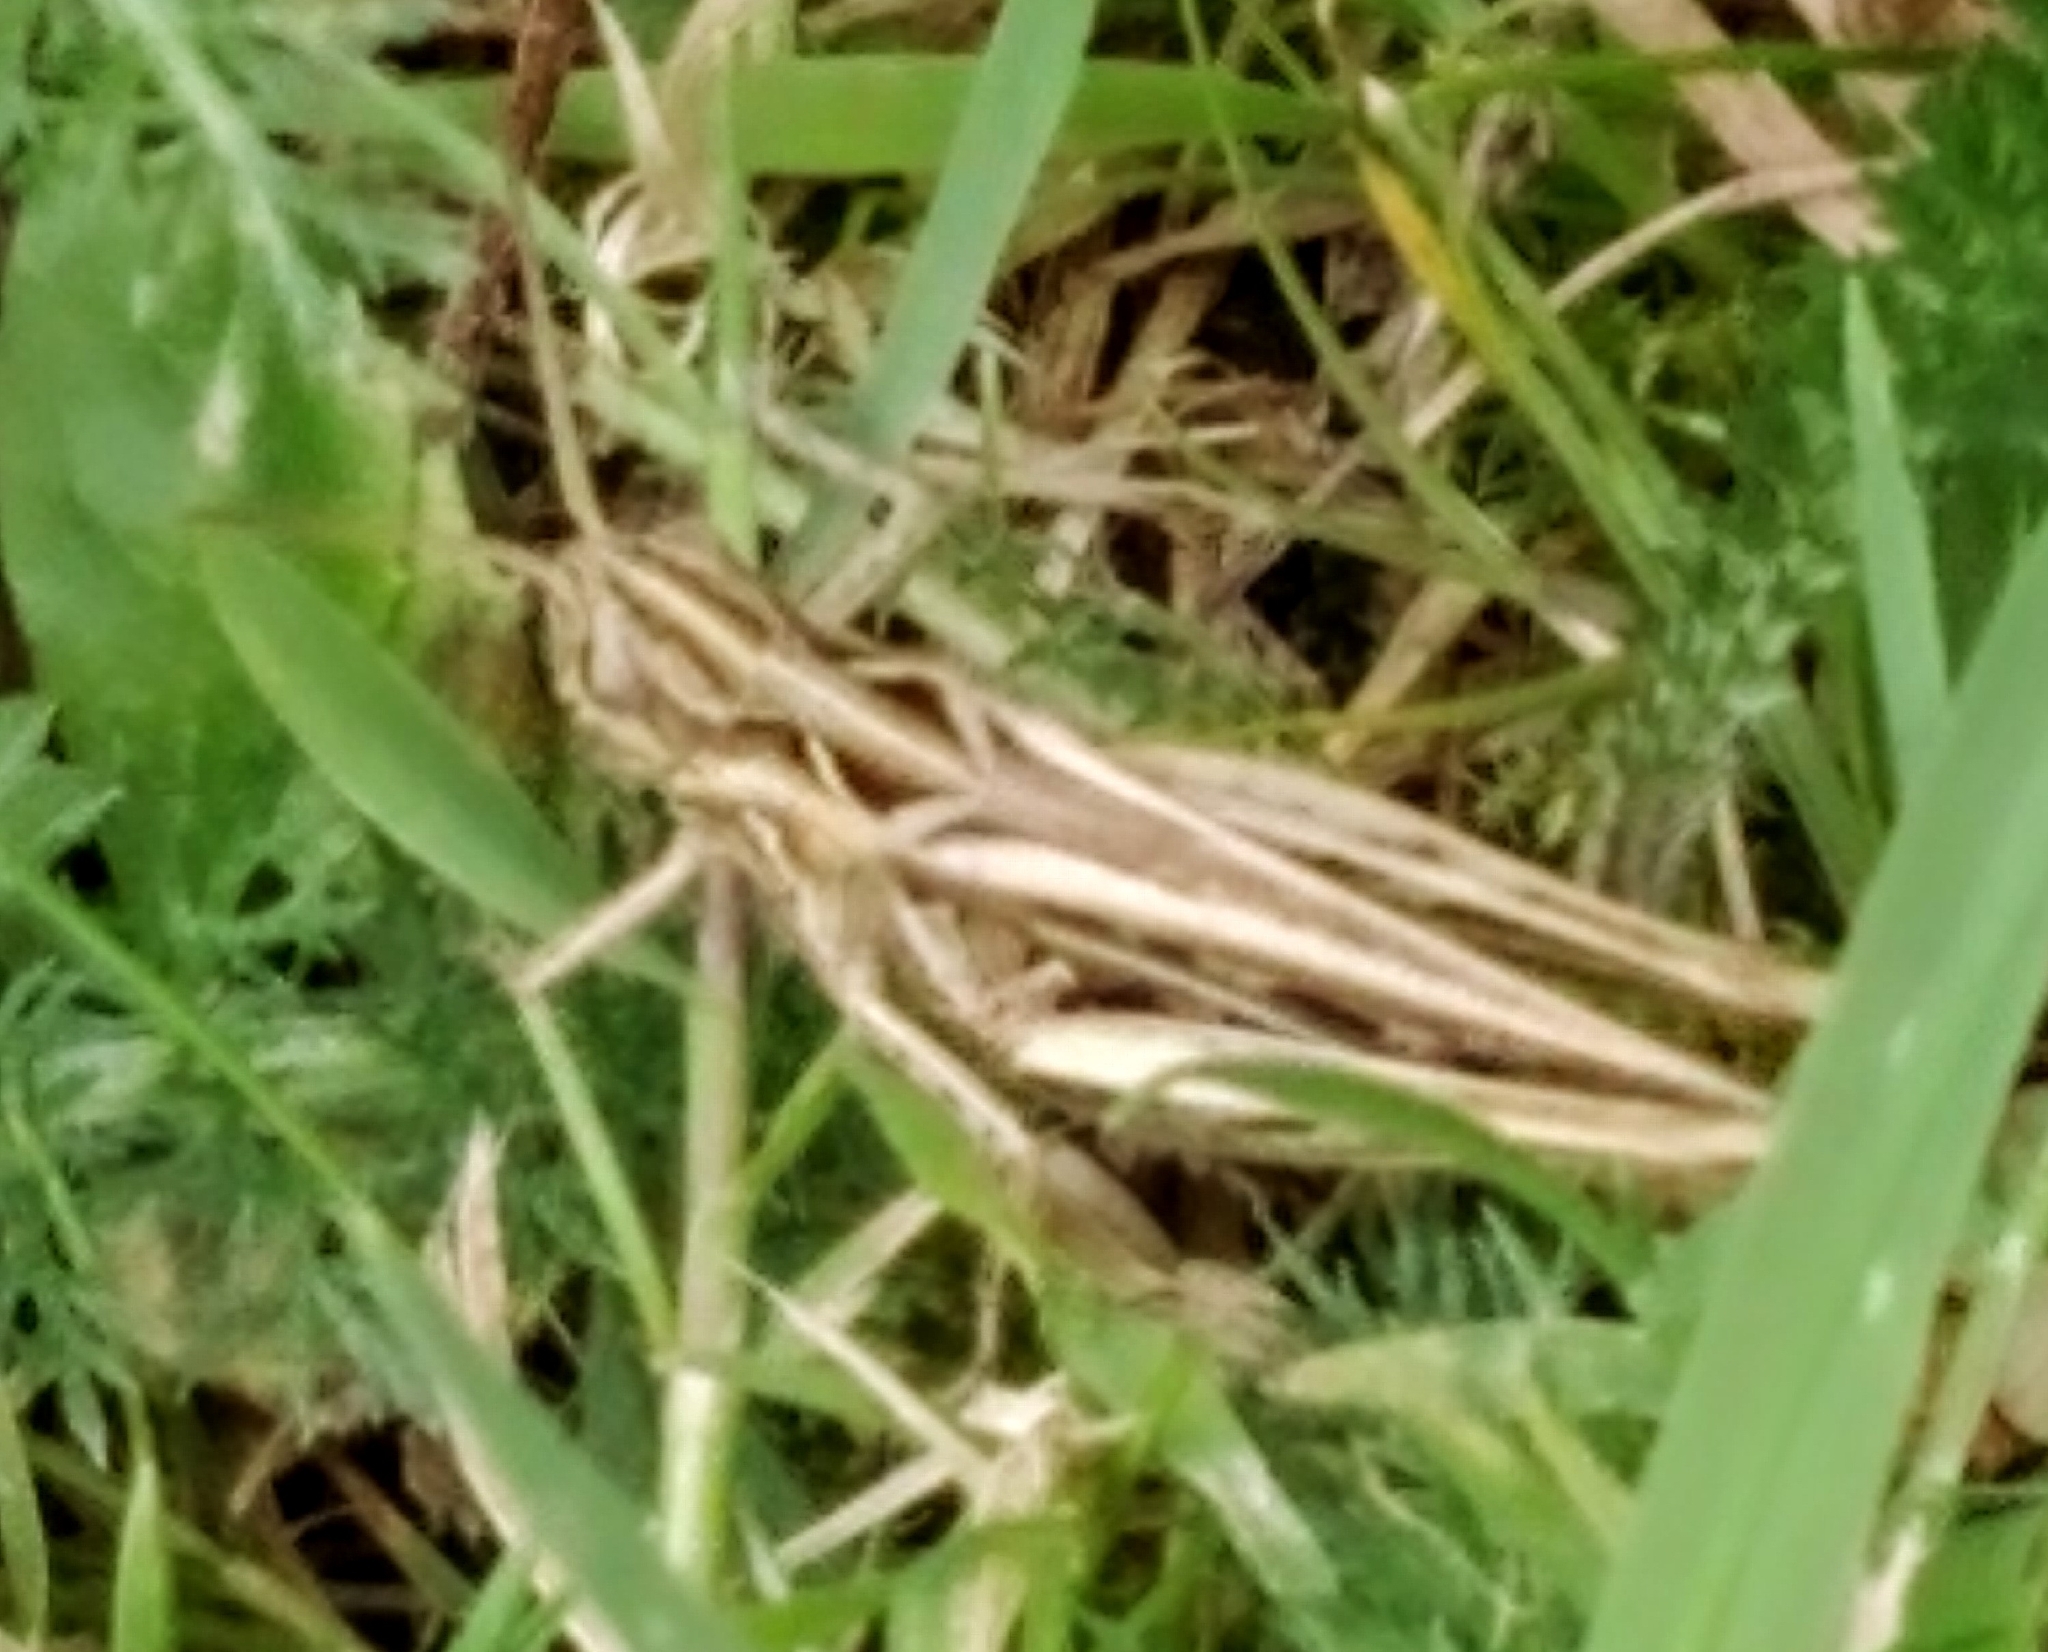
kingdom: Animalia
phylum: Arthropoda
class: Insecta
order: Orthoptera
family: Acrididae
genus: Chorthippus
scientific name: Chorthippus brunneus
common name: Field grasshopper
